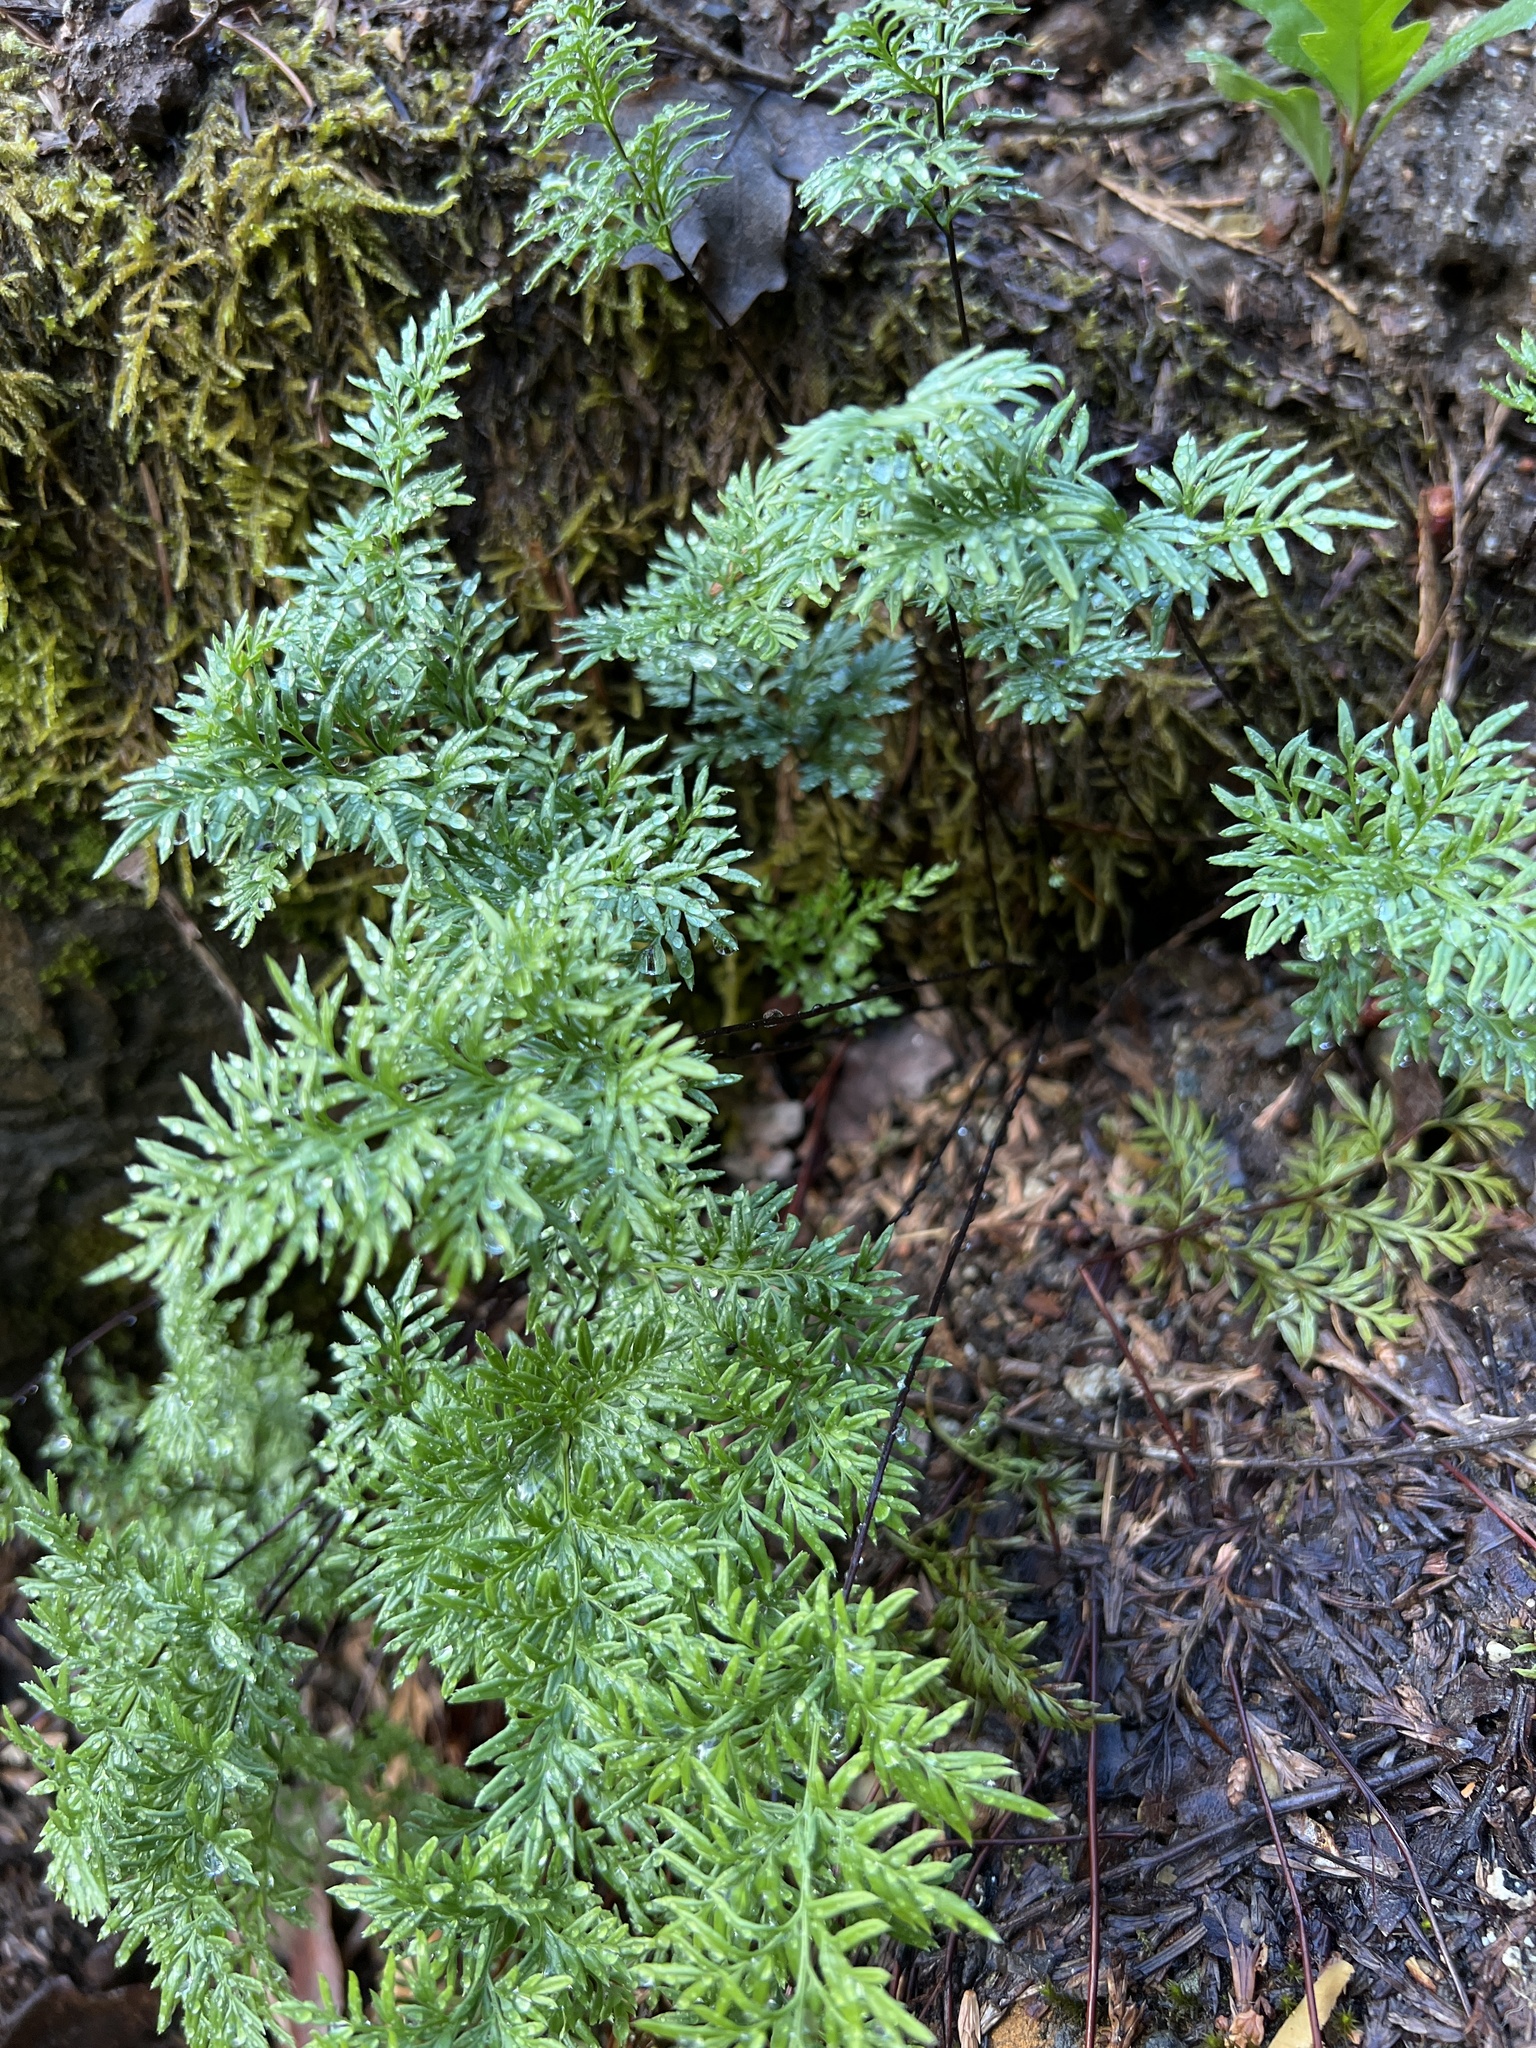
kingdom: Plantae
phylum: Tracheophyta
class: Polypodiopsida
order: Polypodiales
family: Pteridaceae
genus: Aspidotis
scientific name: Aspidotis densa
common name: Indian's dream
